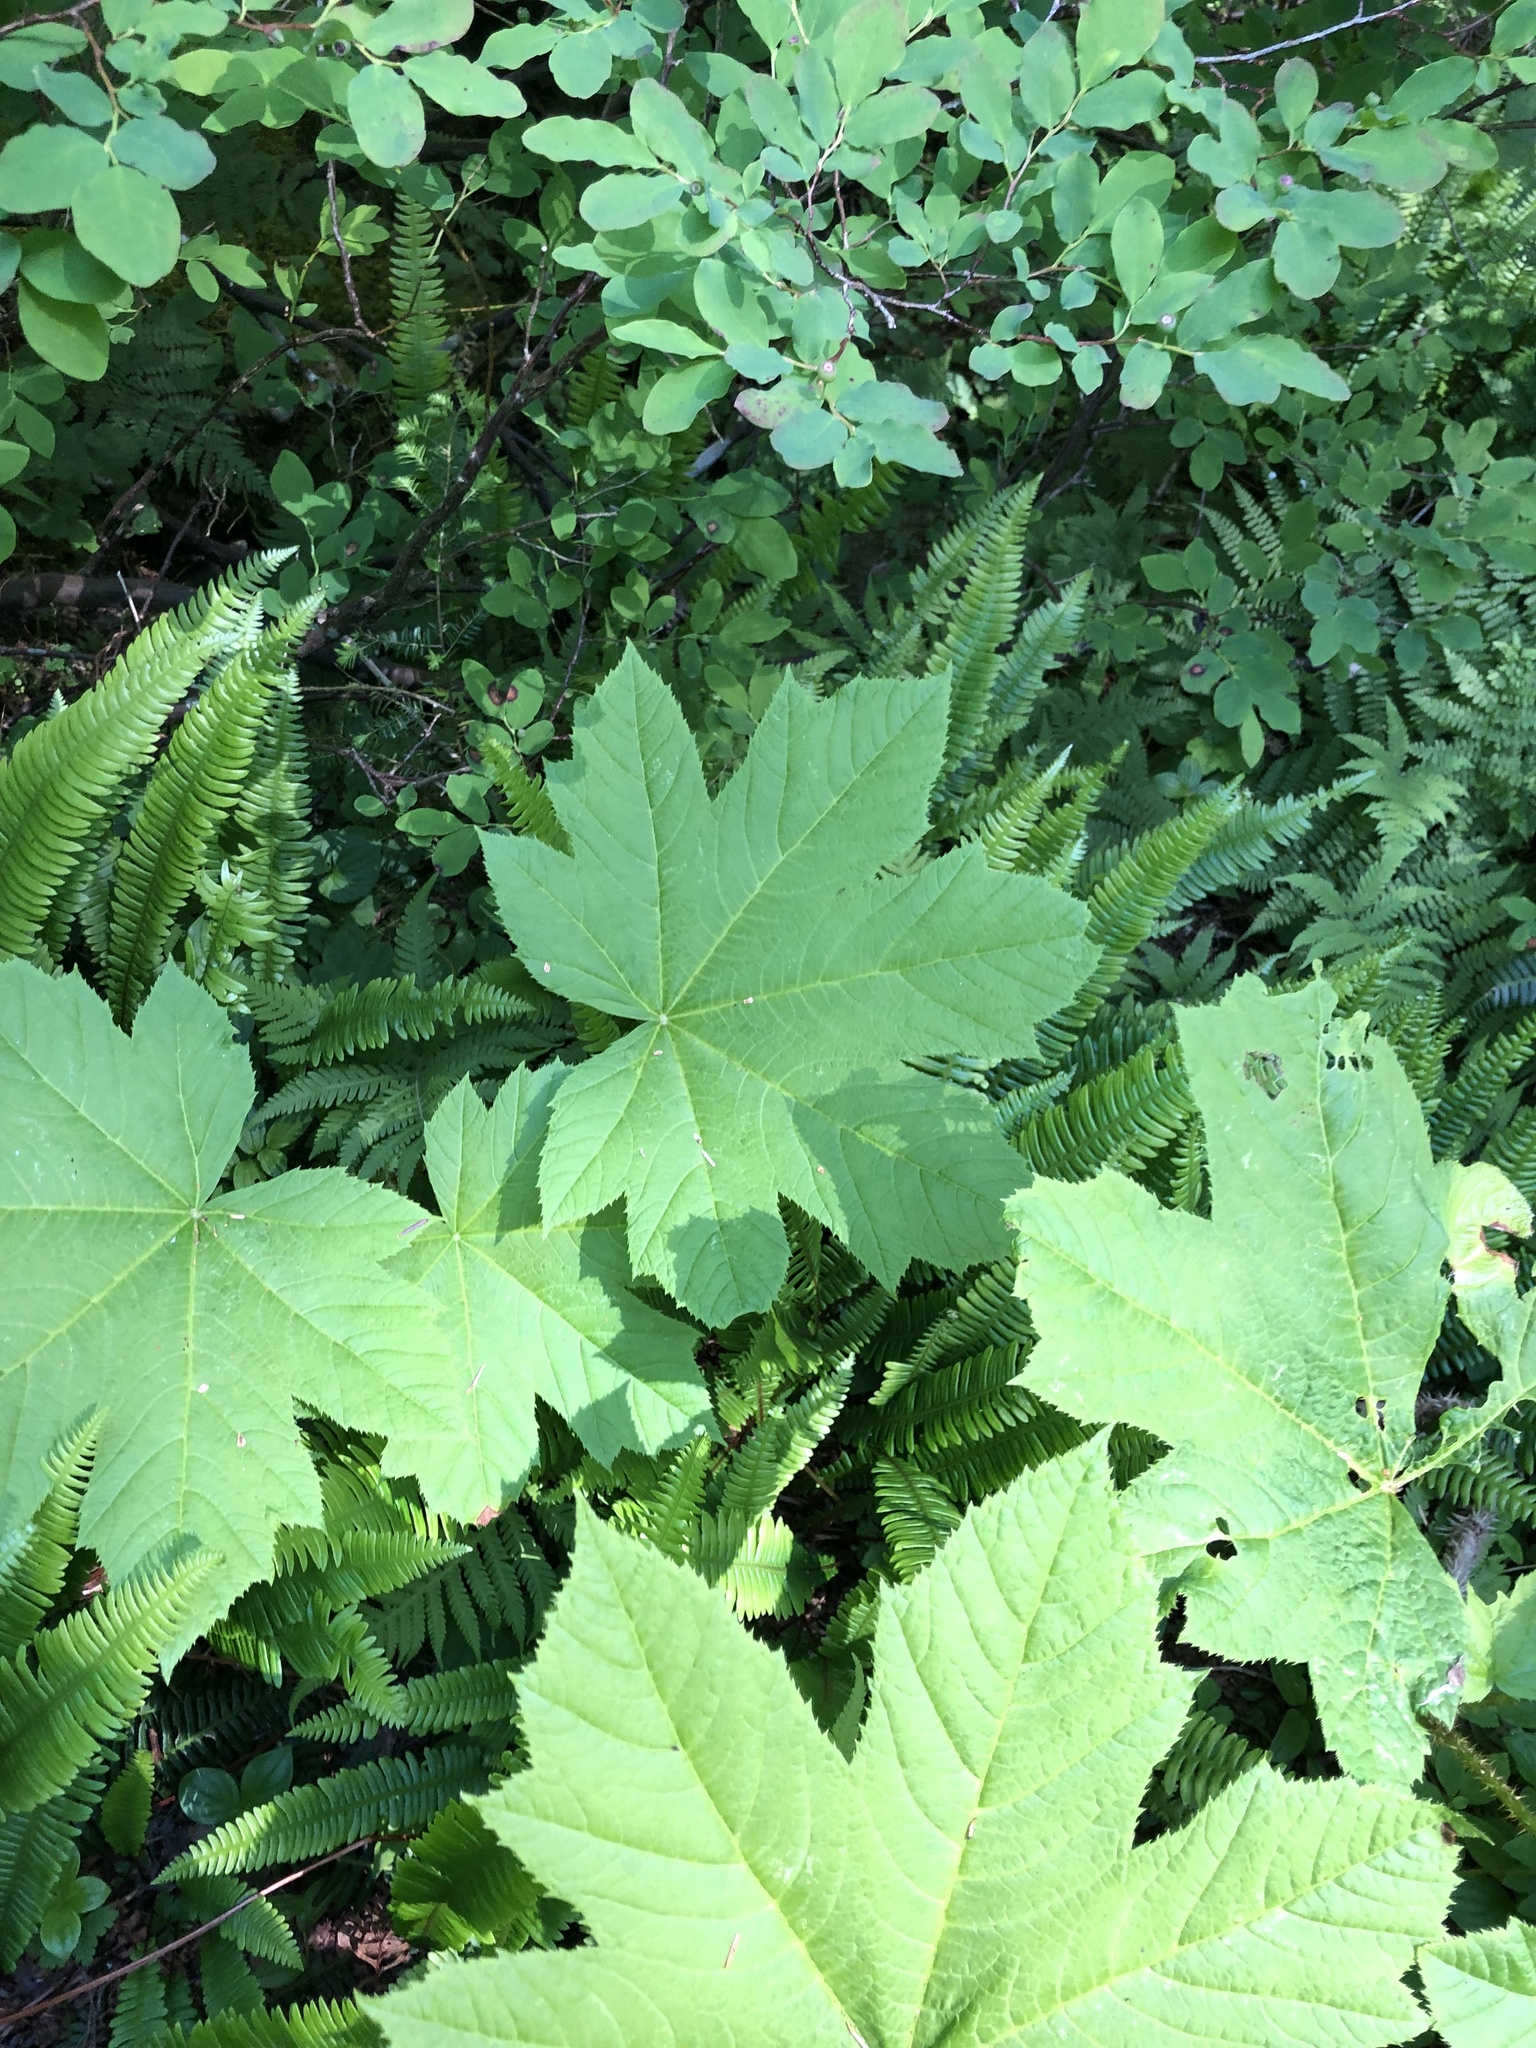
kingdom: Plantae
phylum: Tracheophyta
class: Magnoliopsida
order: Apiales
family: Araliaceae
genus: Oplopanax
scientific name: Oplopanax horridus
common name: Devil's walking-stick
